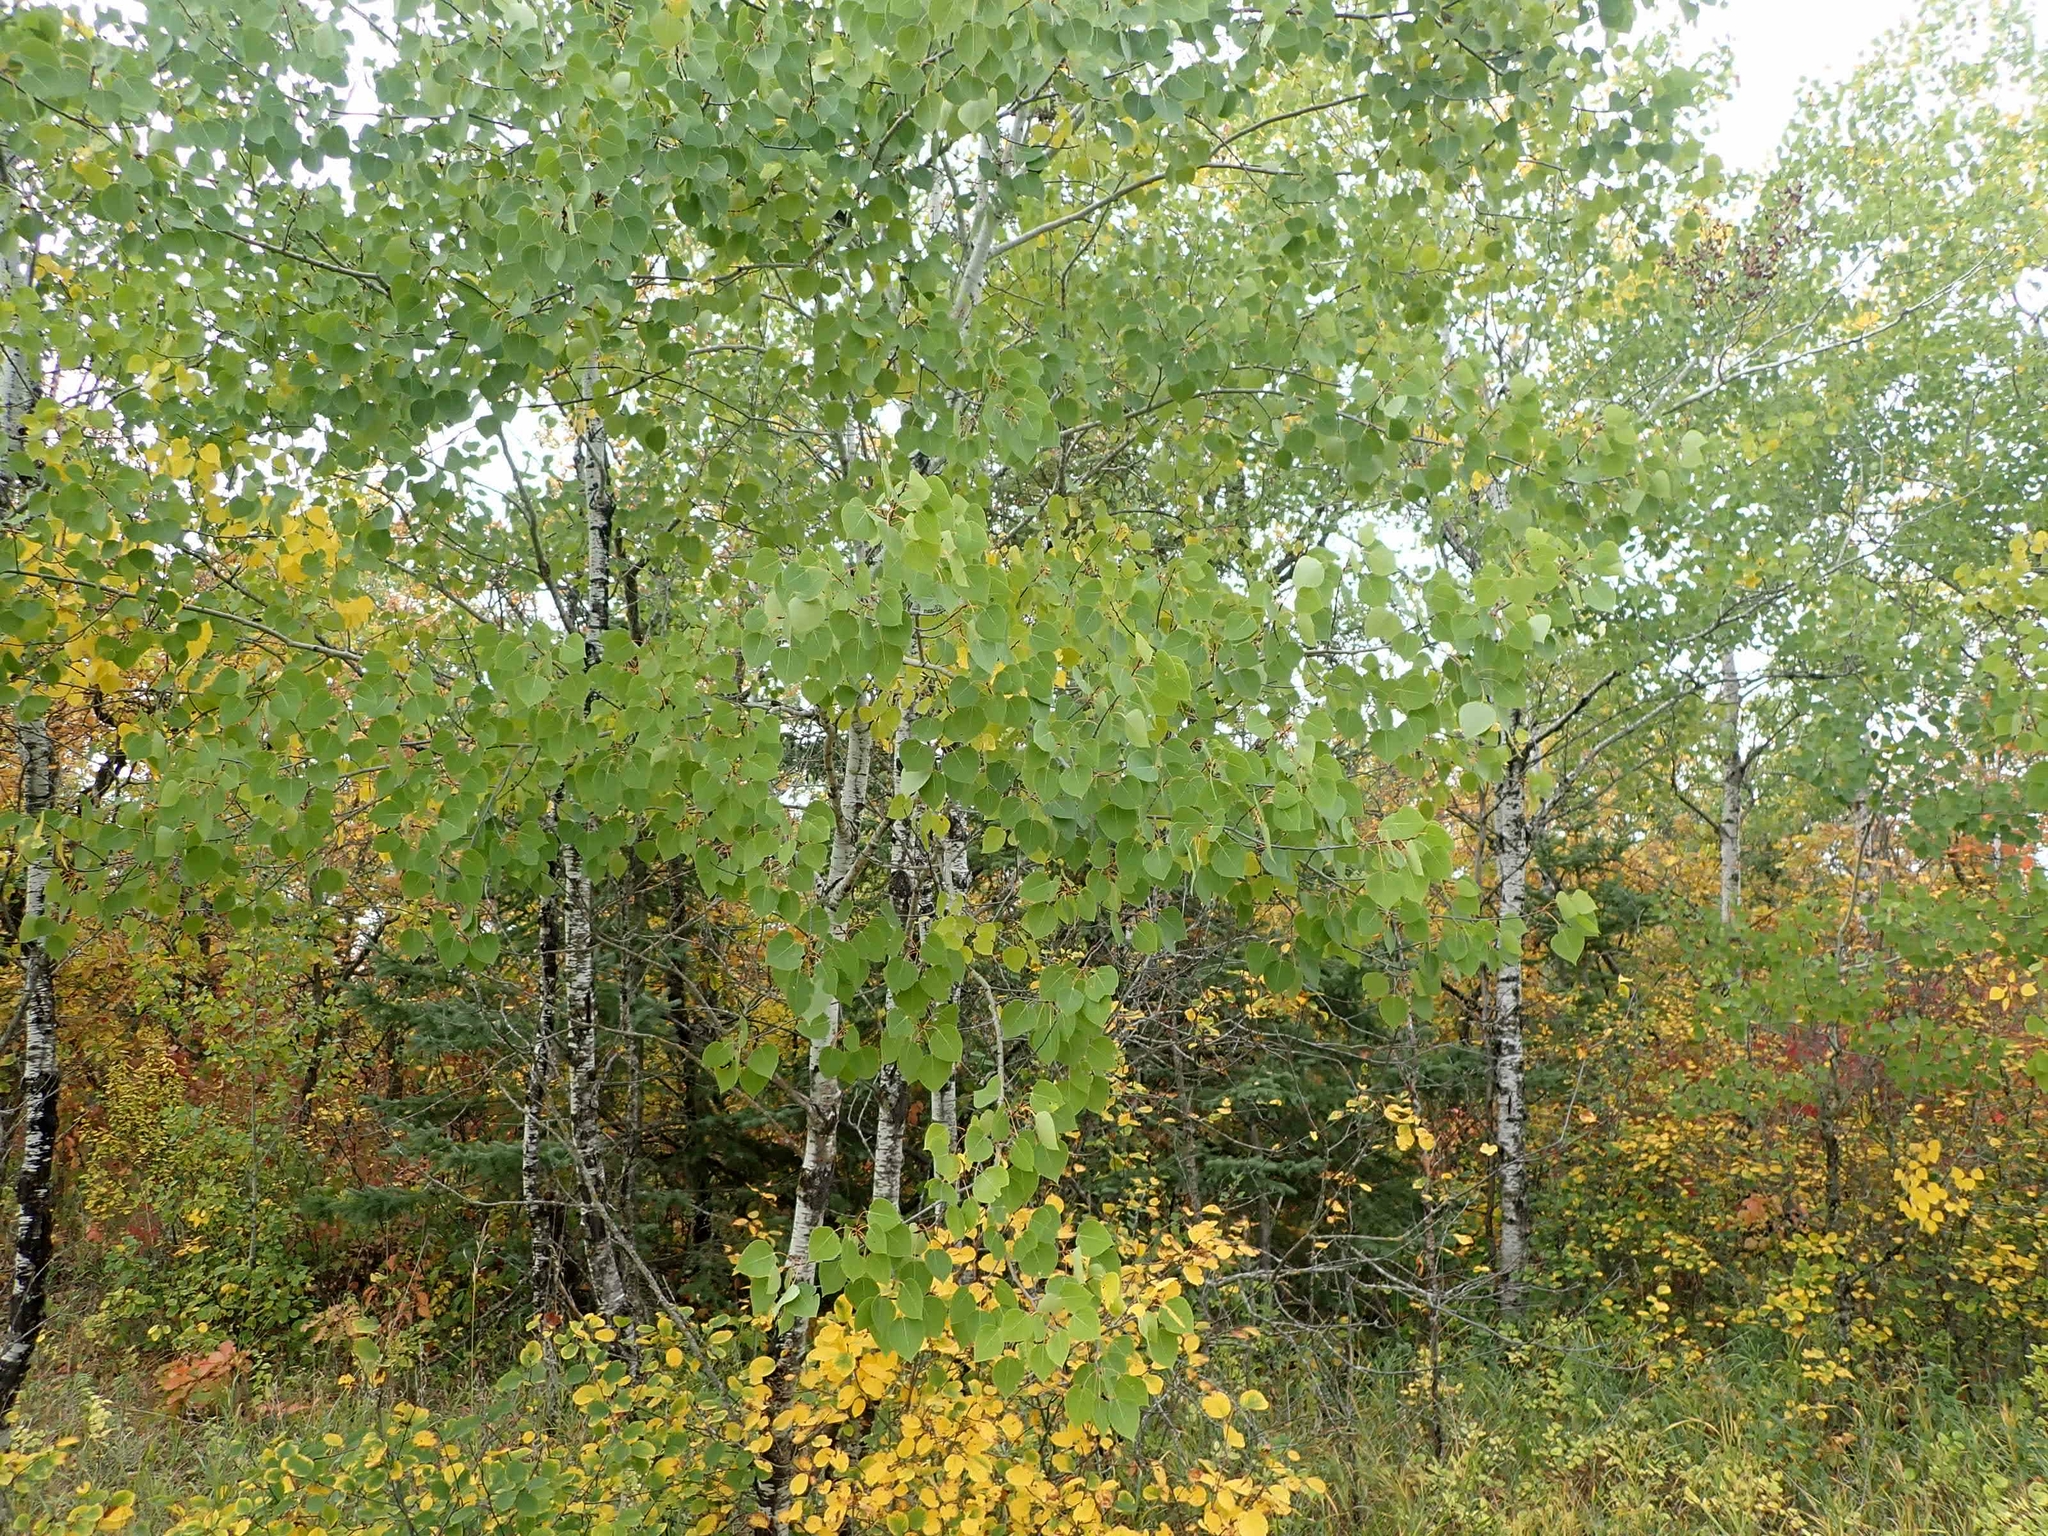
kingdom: Plantae
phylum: Tracheophyta
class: Magnoliopsida
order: Malpighiales
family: Salicaceae
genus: Populus
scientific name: Populus tremuloides
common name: Quaking aspen
